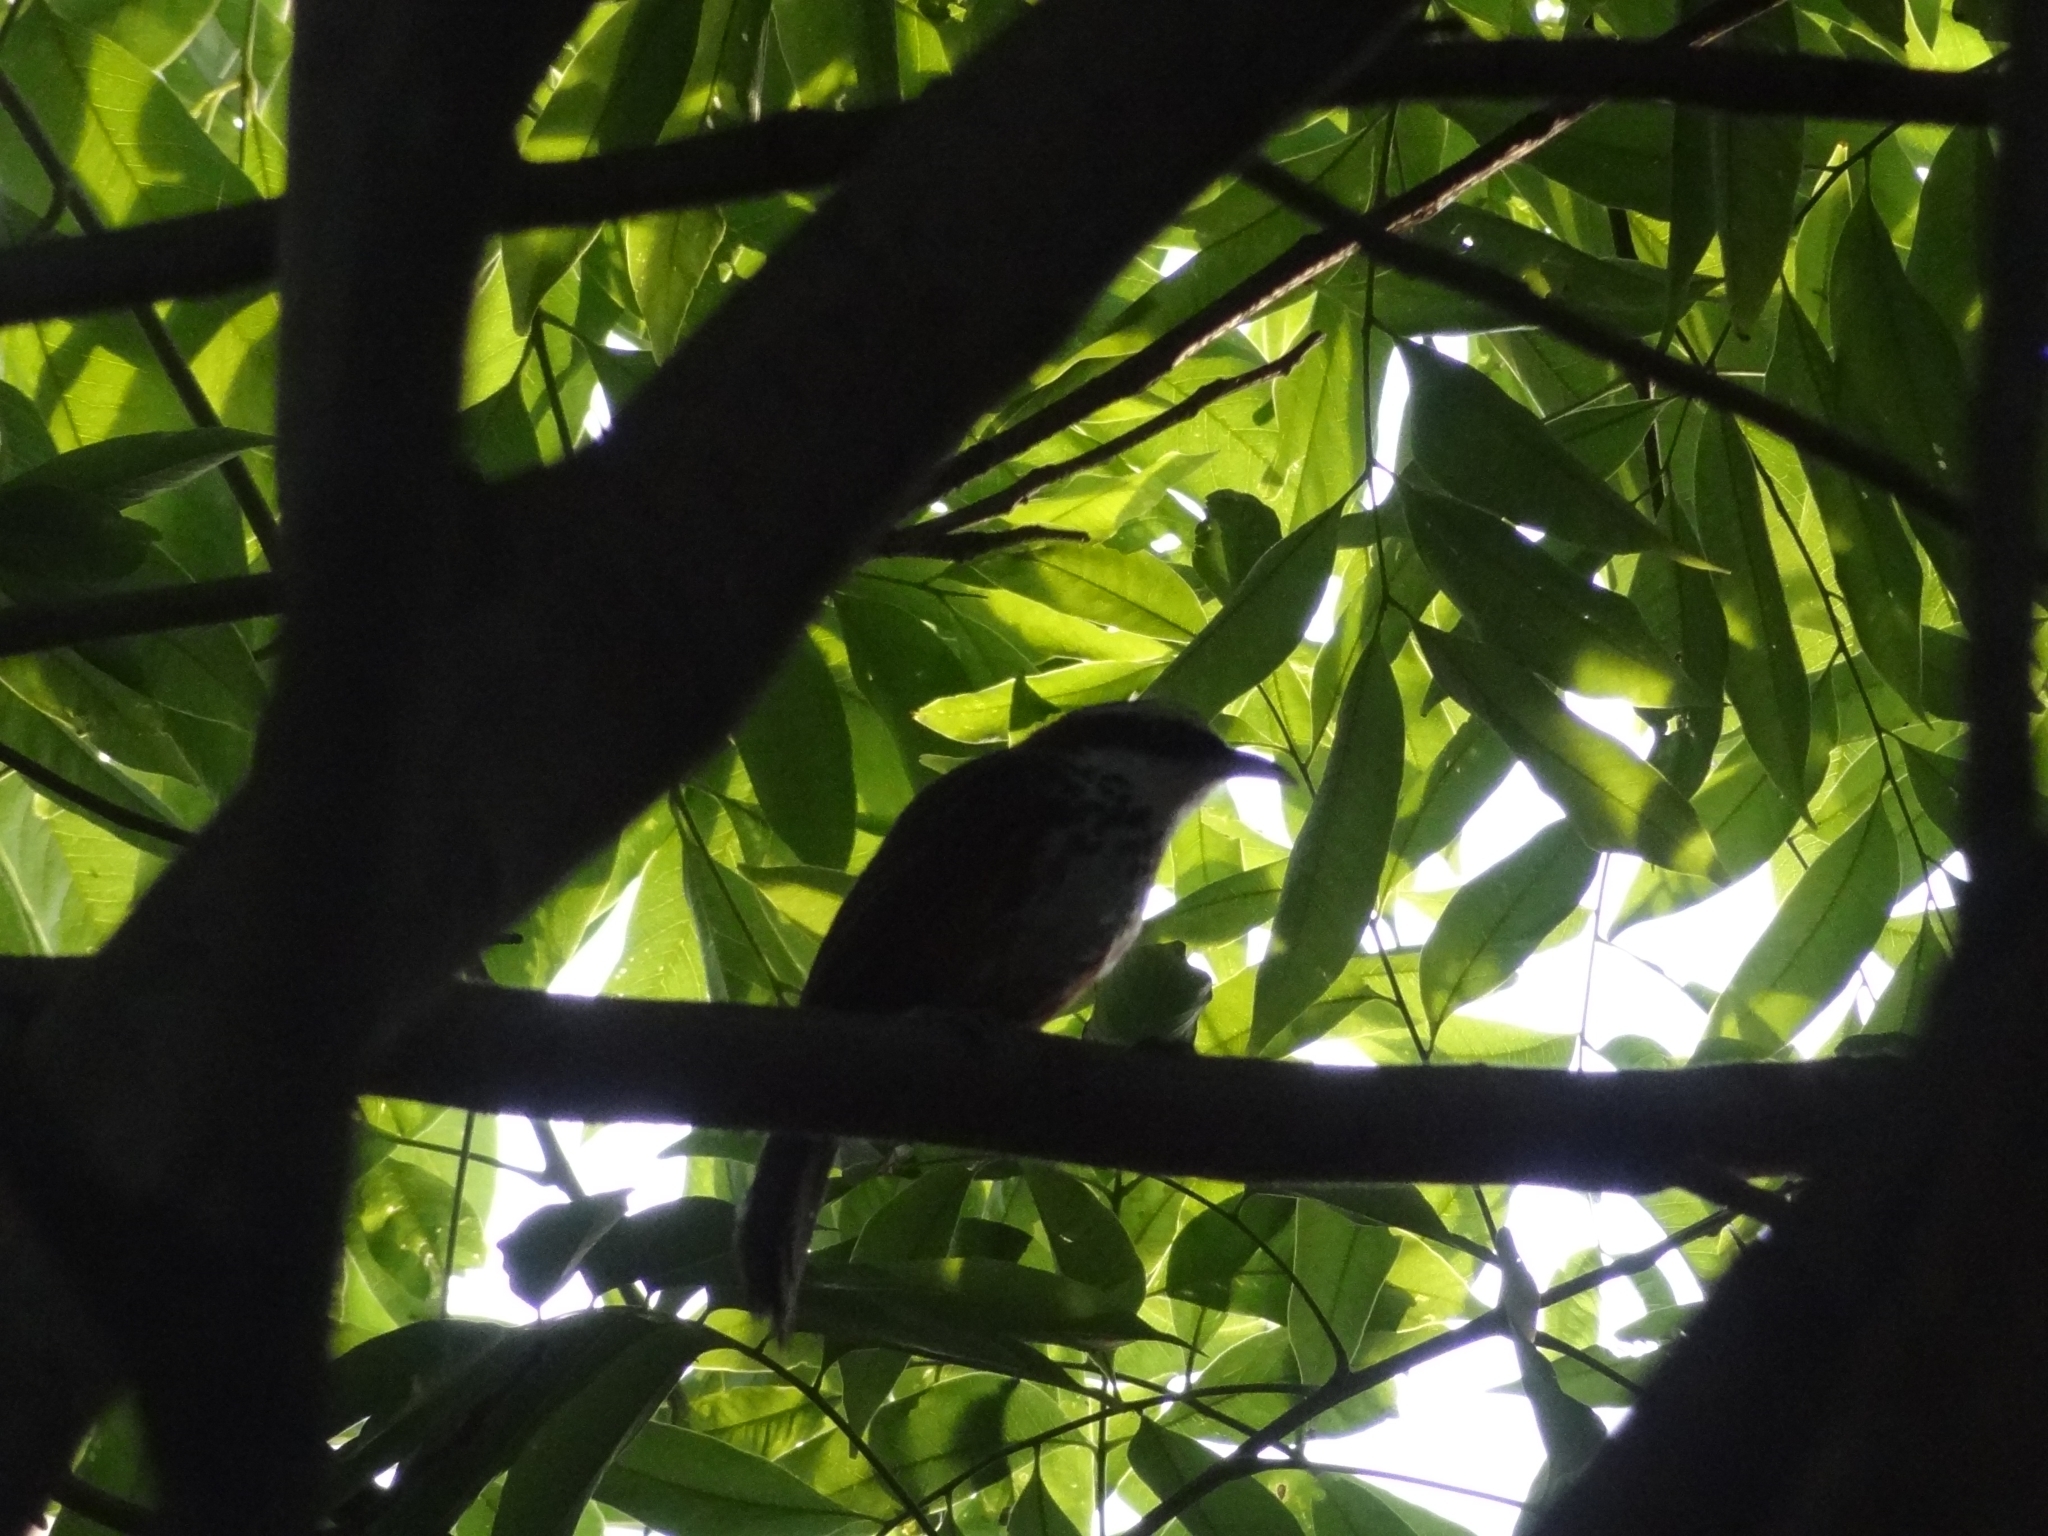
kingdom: Animalia
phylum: Chordata
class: Aves
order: Passeriformes
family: Timaliidae
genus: Pomatorhinus
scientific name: Pomatorhinus musicus
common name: Taiwan scimitar-babbler
